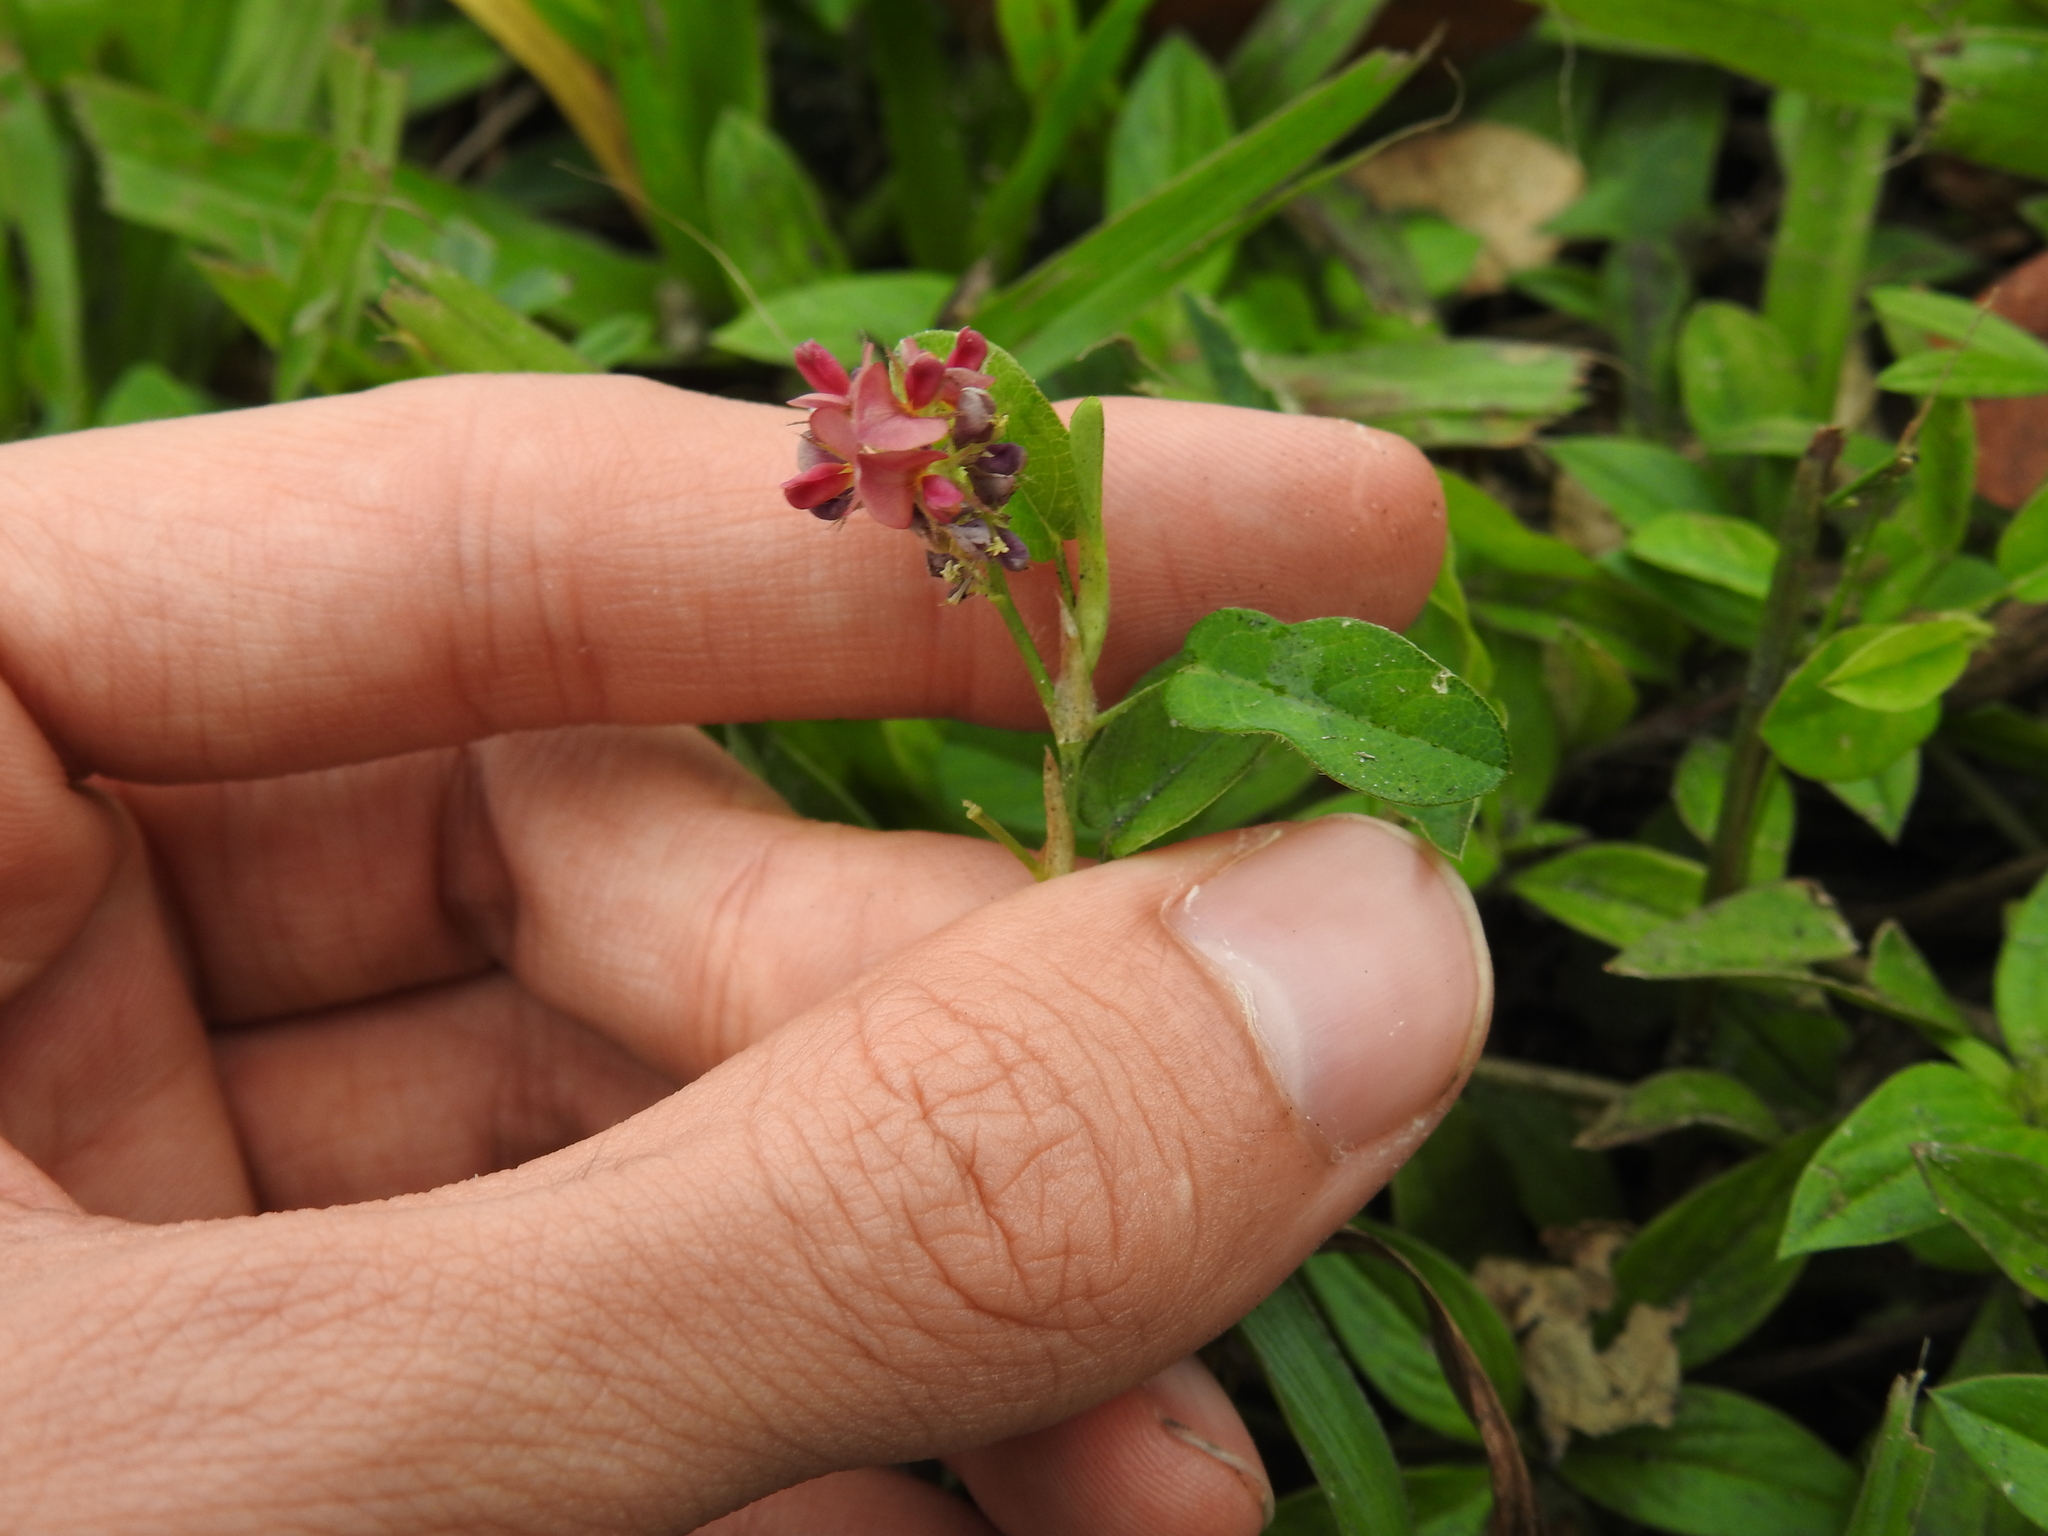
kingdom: Plantae
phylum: Tracheophyta
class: Magnoliopsida
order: Fabales
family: Fabaceae
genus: Alysicarpus
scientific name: Alysicarpus vaginalis
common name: White moneywort
